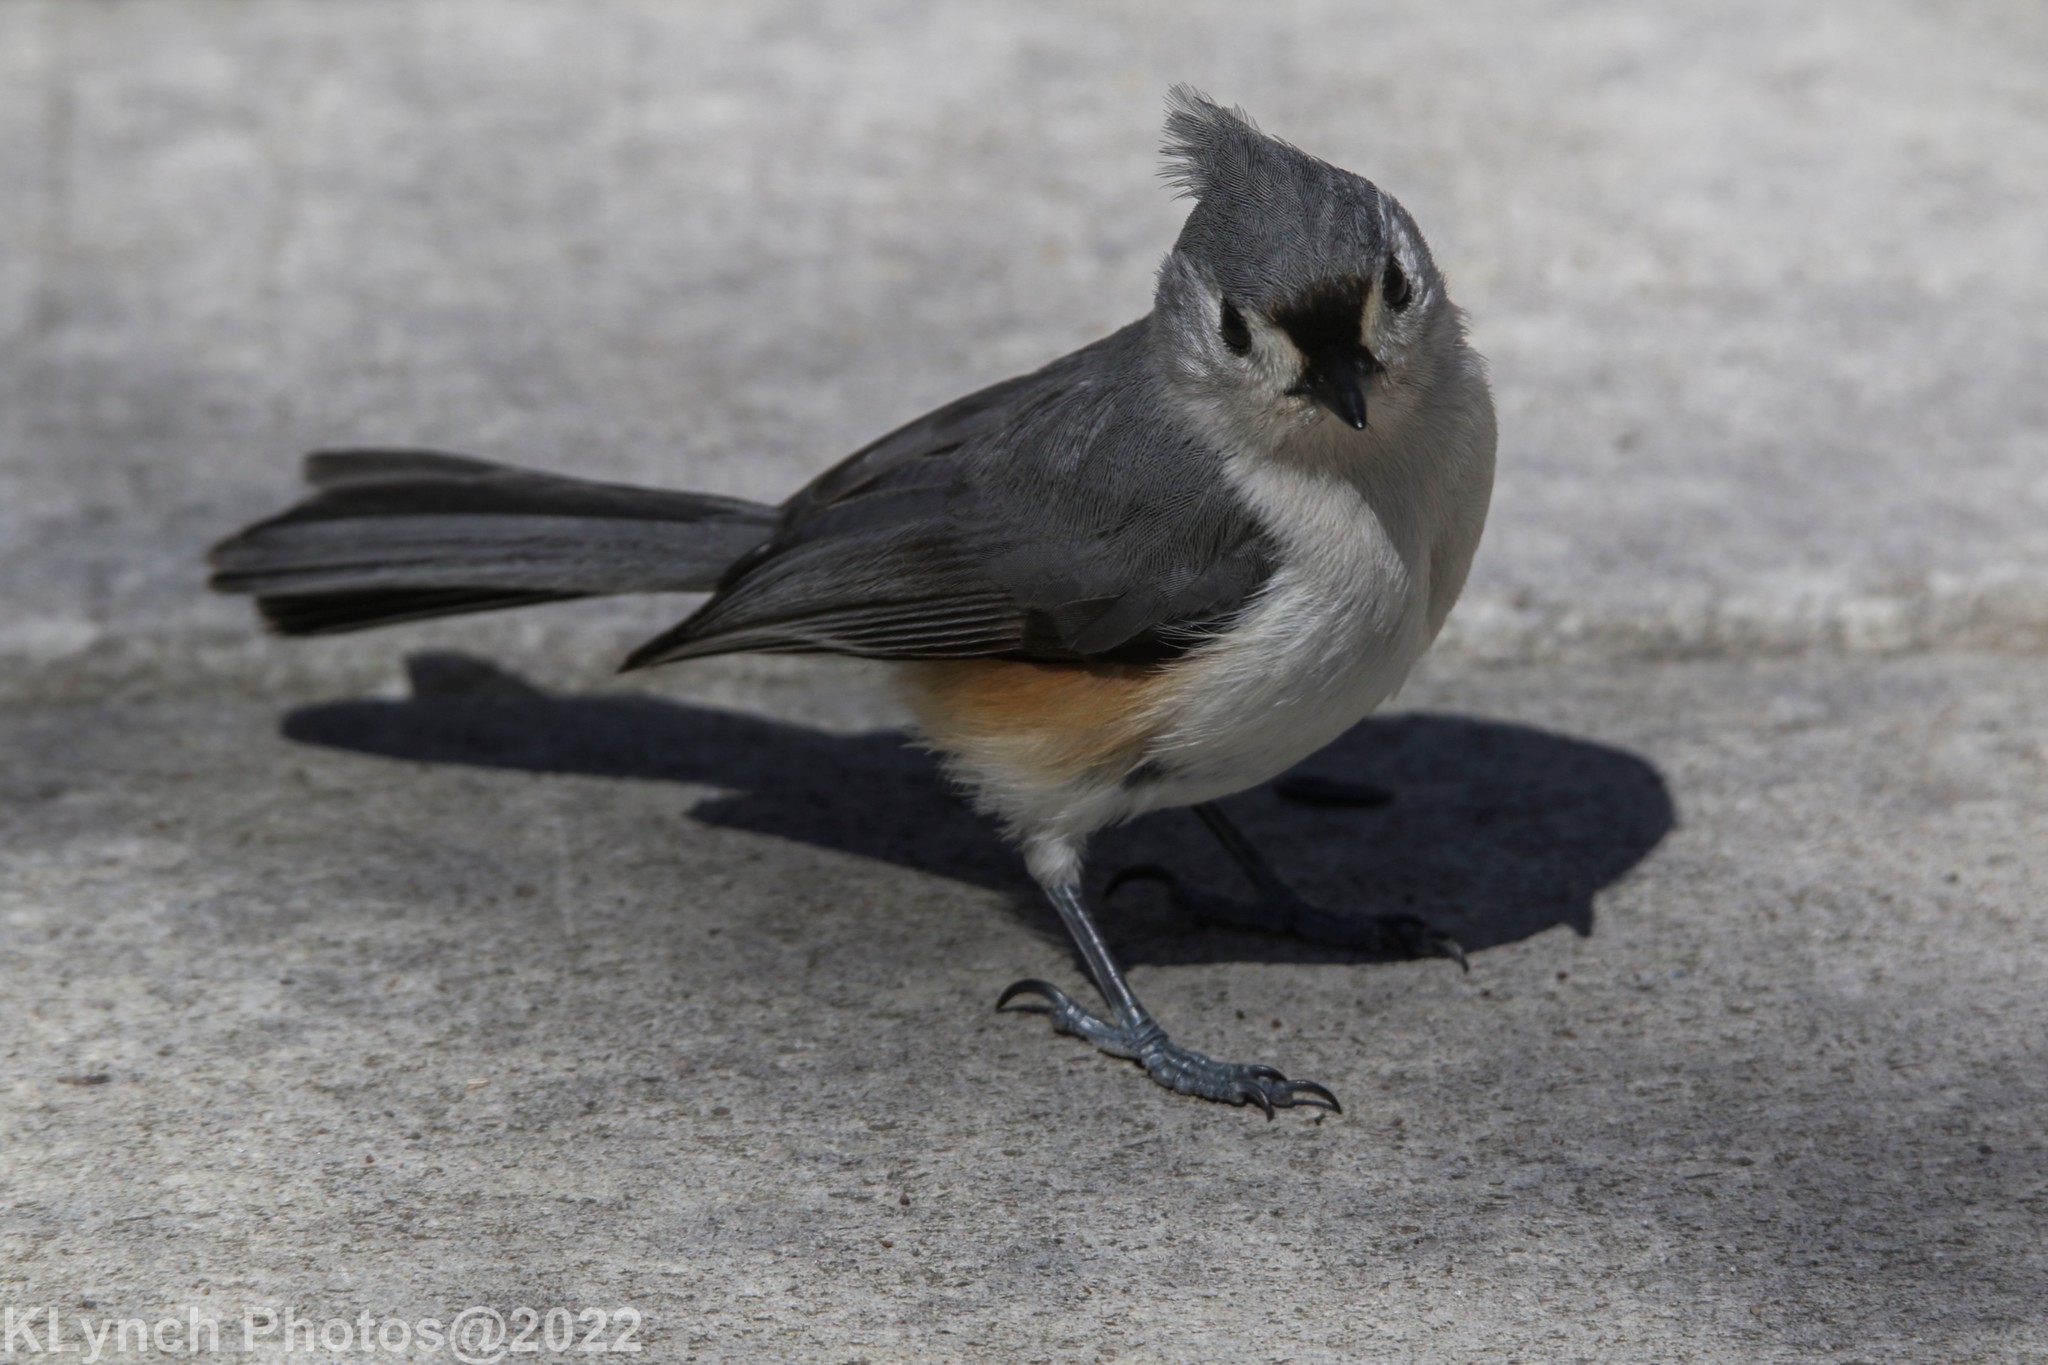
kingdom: Animalia
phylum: Chordata
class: Aves
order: Passeriformes
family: Paridae
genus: Baeolophus
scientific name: Baeolophus bicolor
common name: Tufted titmouse
